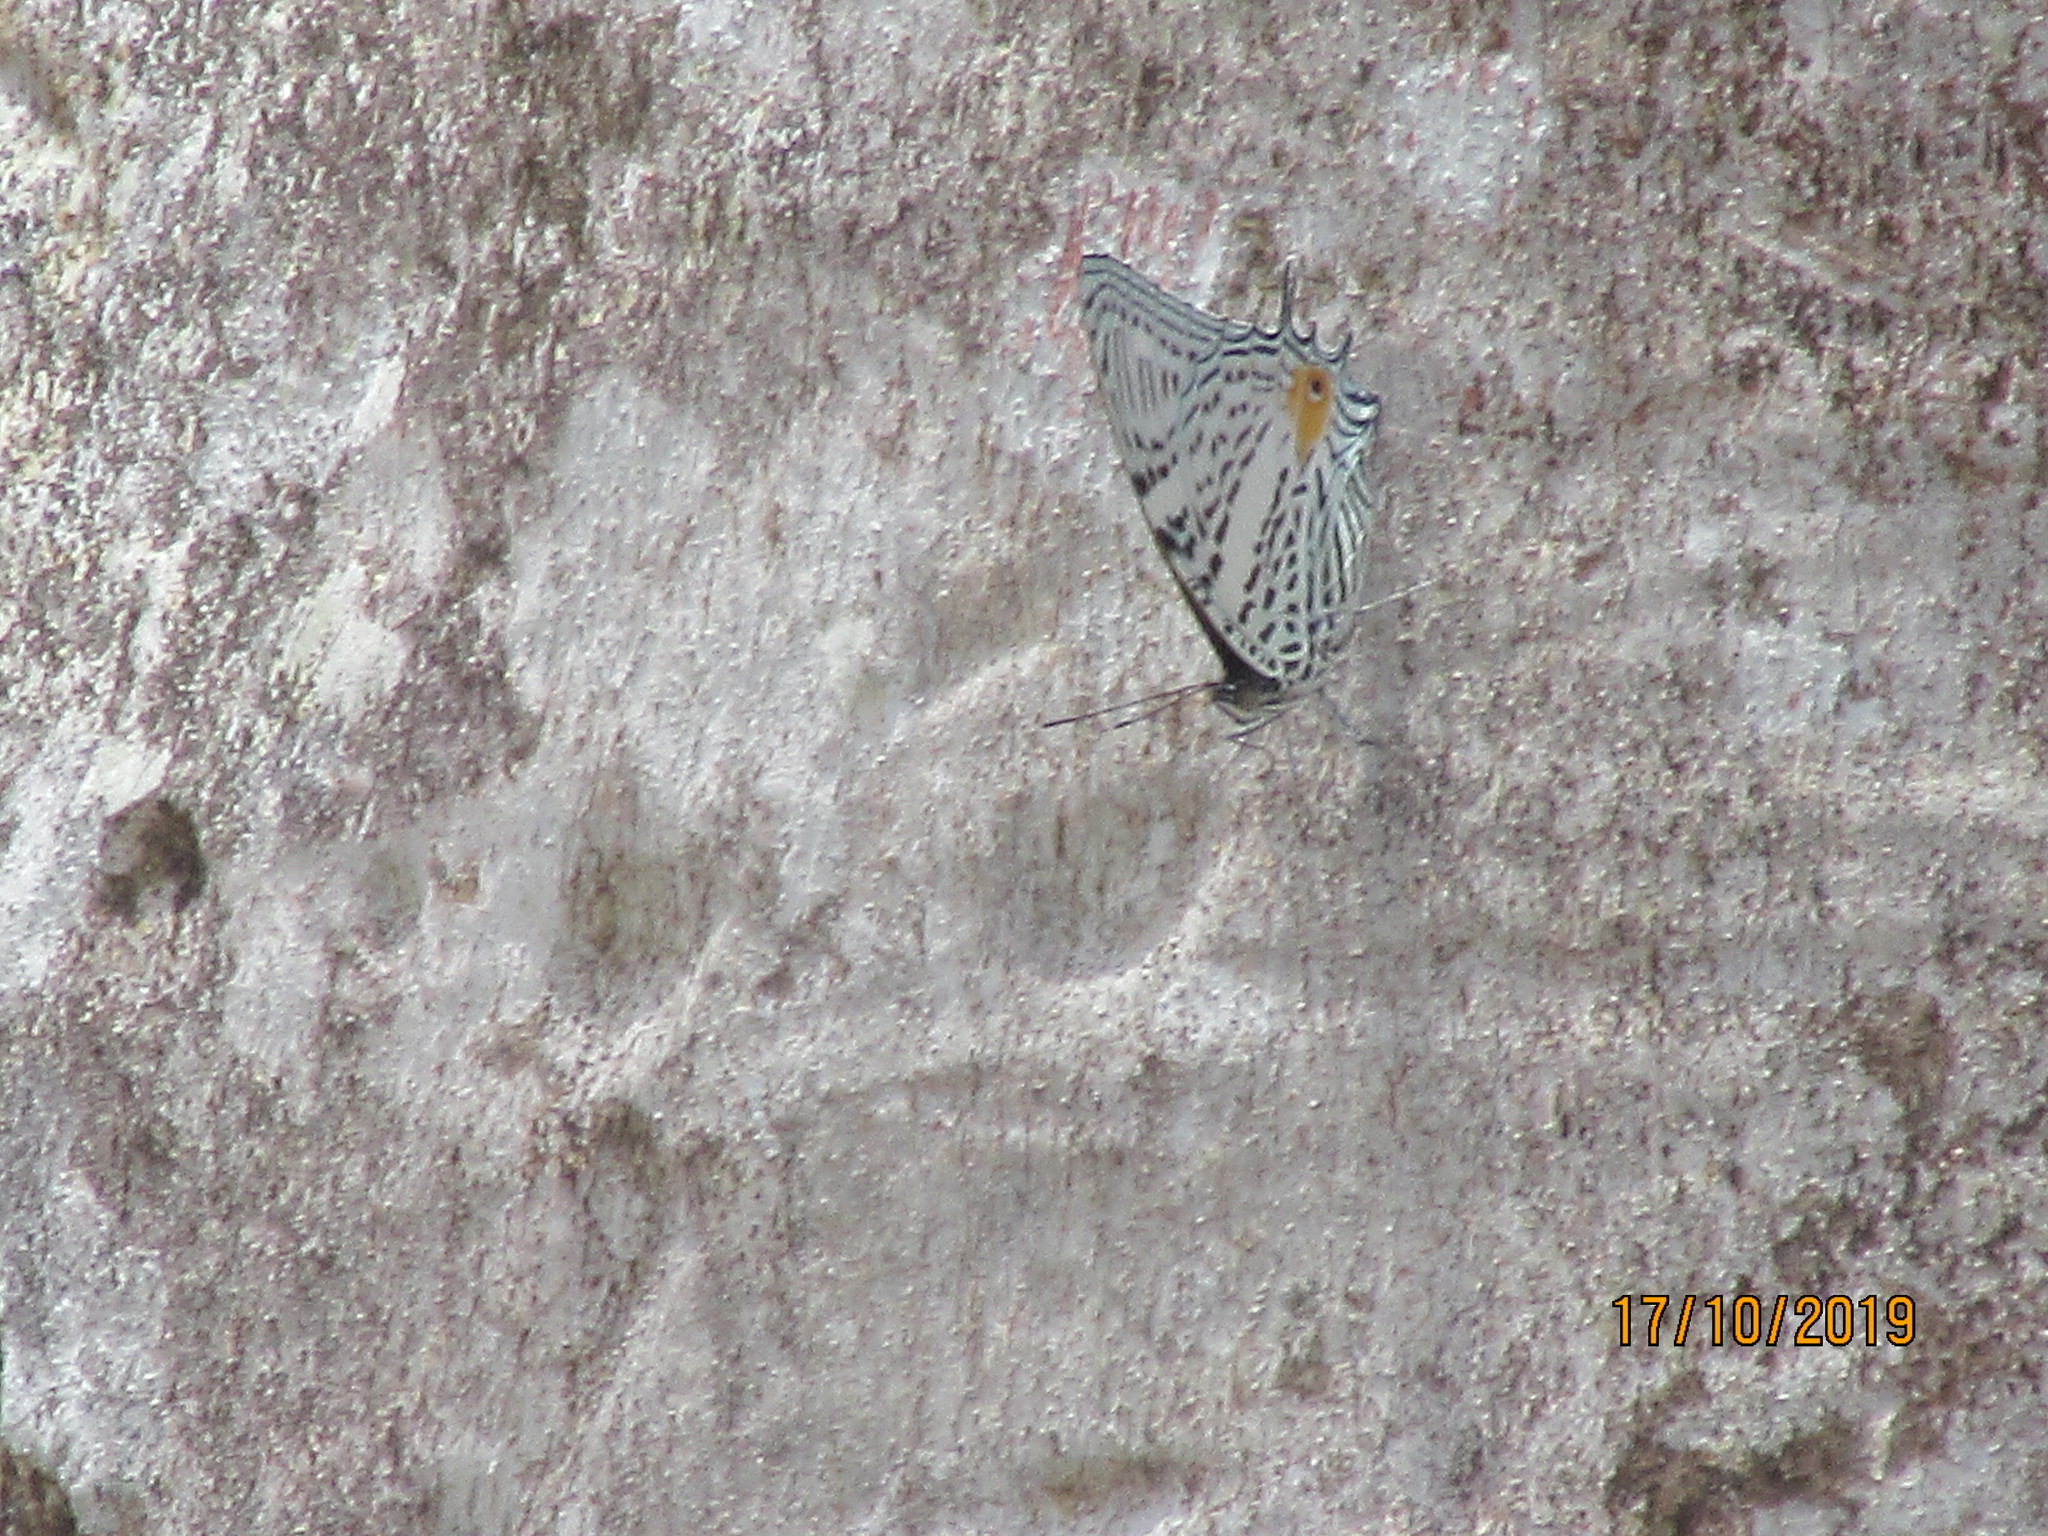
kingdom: Animalia
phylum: Arthropoda
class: Insecta
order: Lepidoptera
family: Nymphalidae
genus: Baeotus
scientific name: Baeotus aeilus
